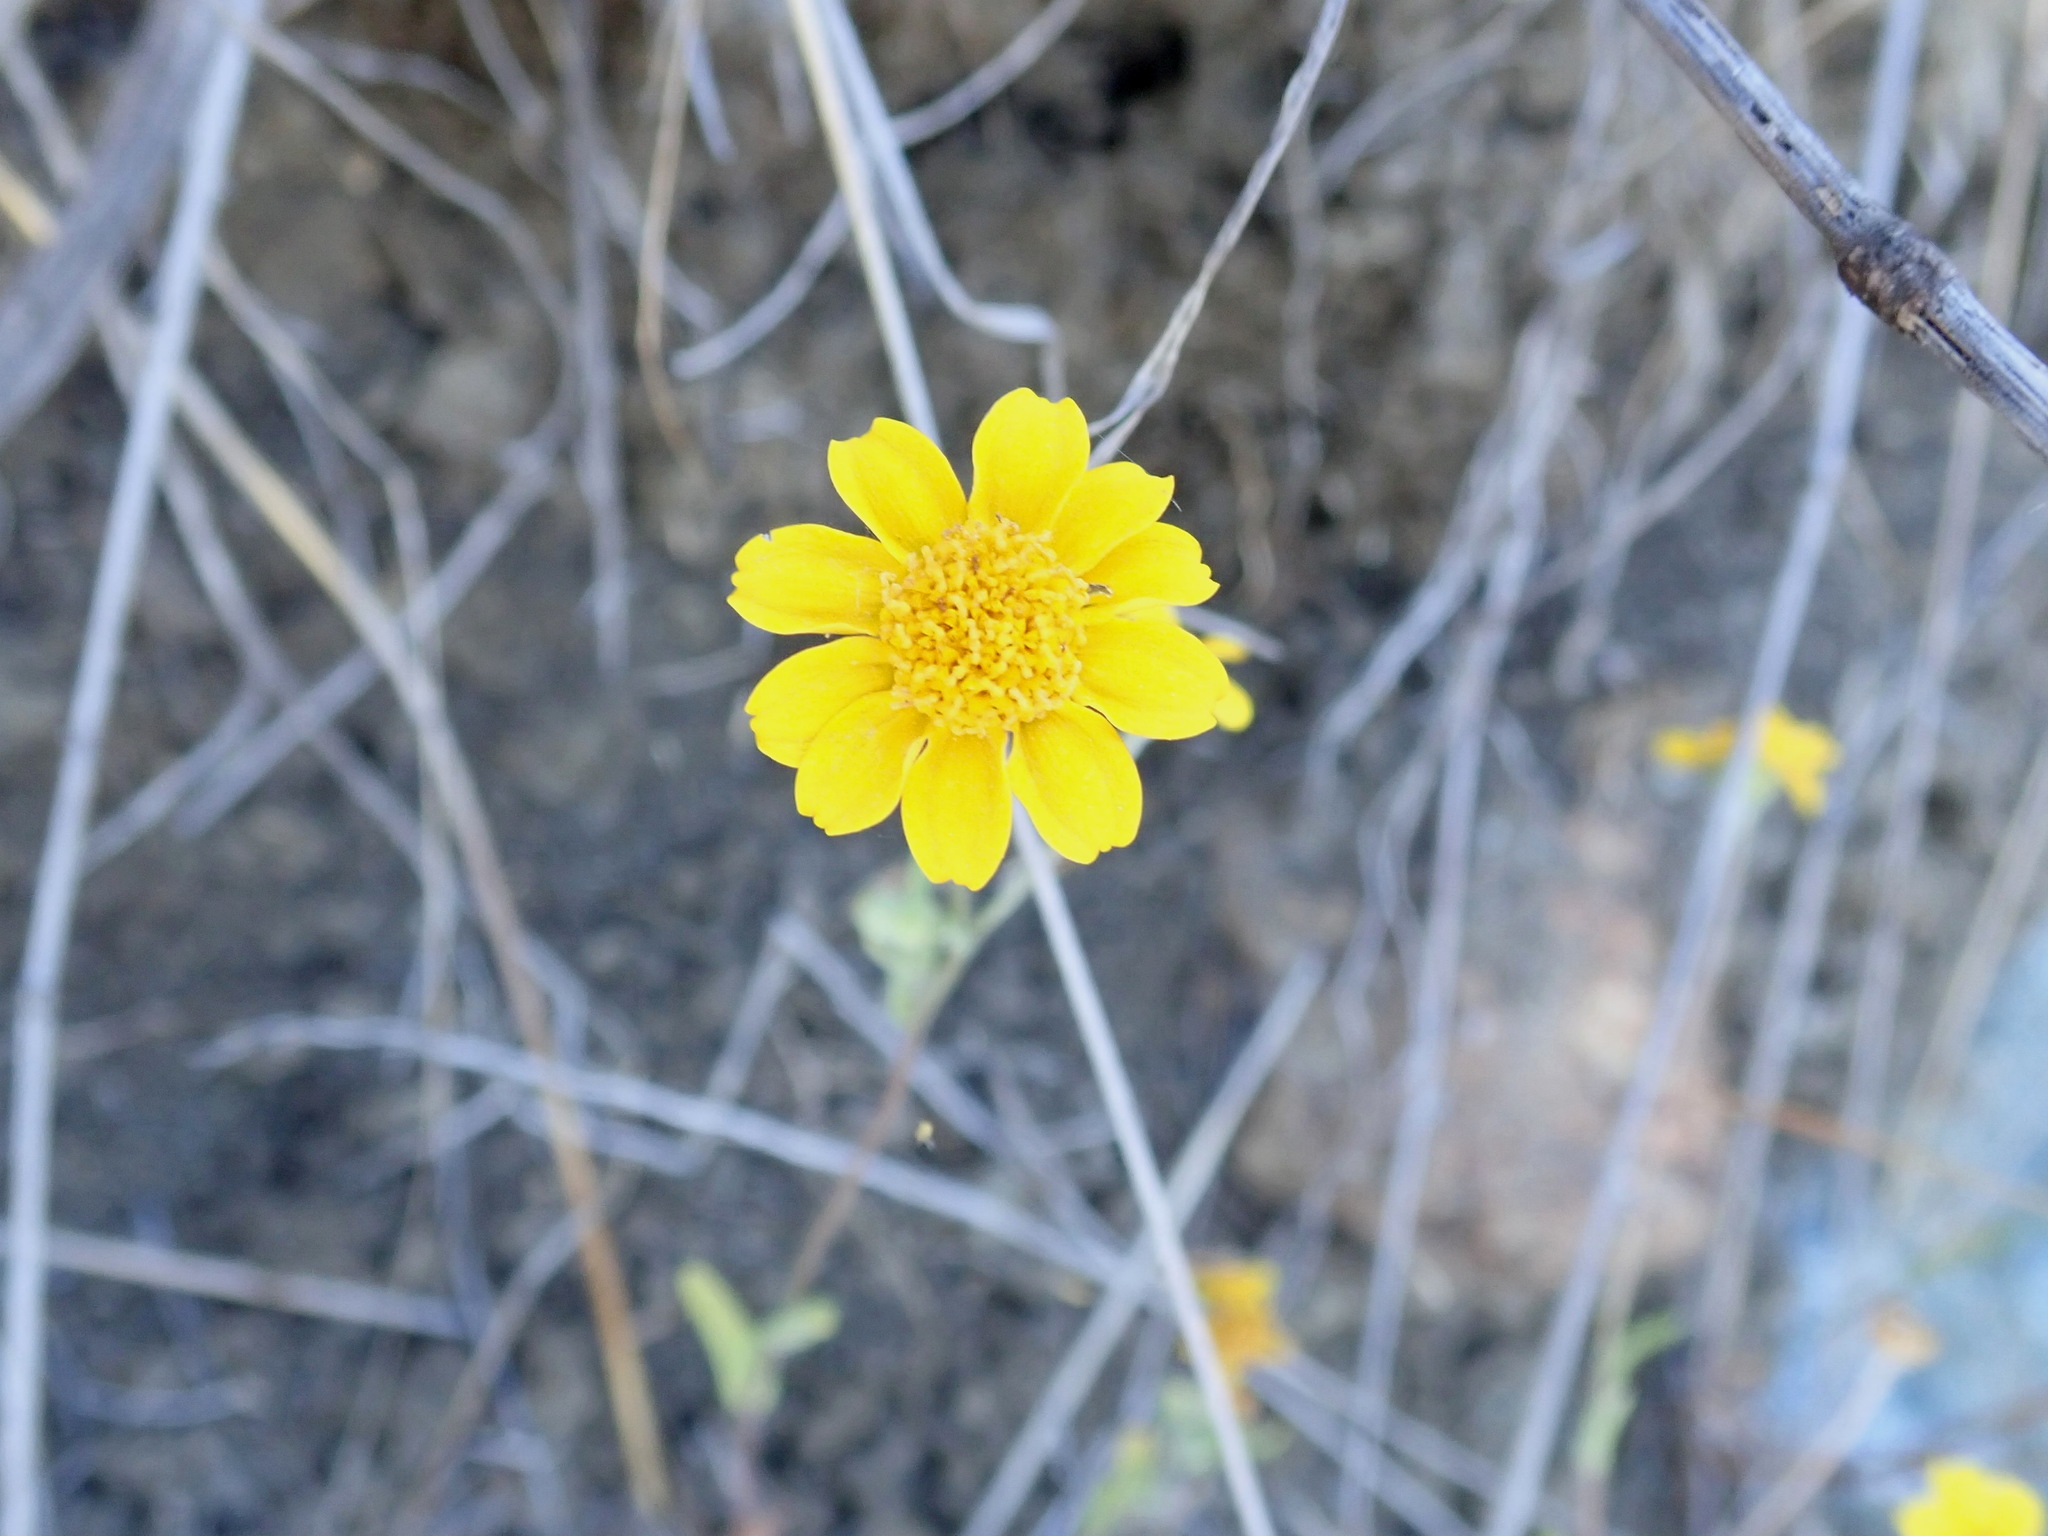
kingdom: Plantae
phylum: Tracheophyta
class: Magnoliopsida
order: Asterales
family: Asteraceae
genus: Monolopia
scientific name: Monolopia gracilens
